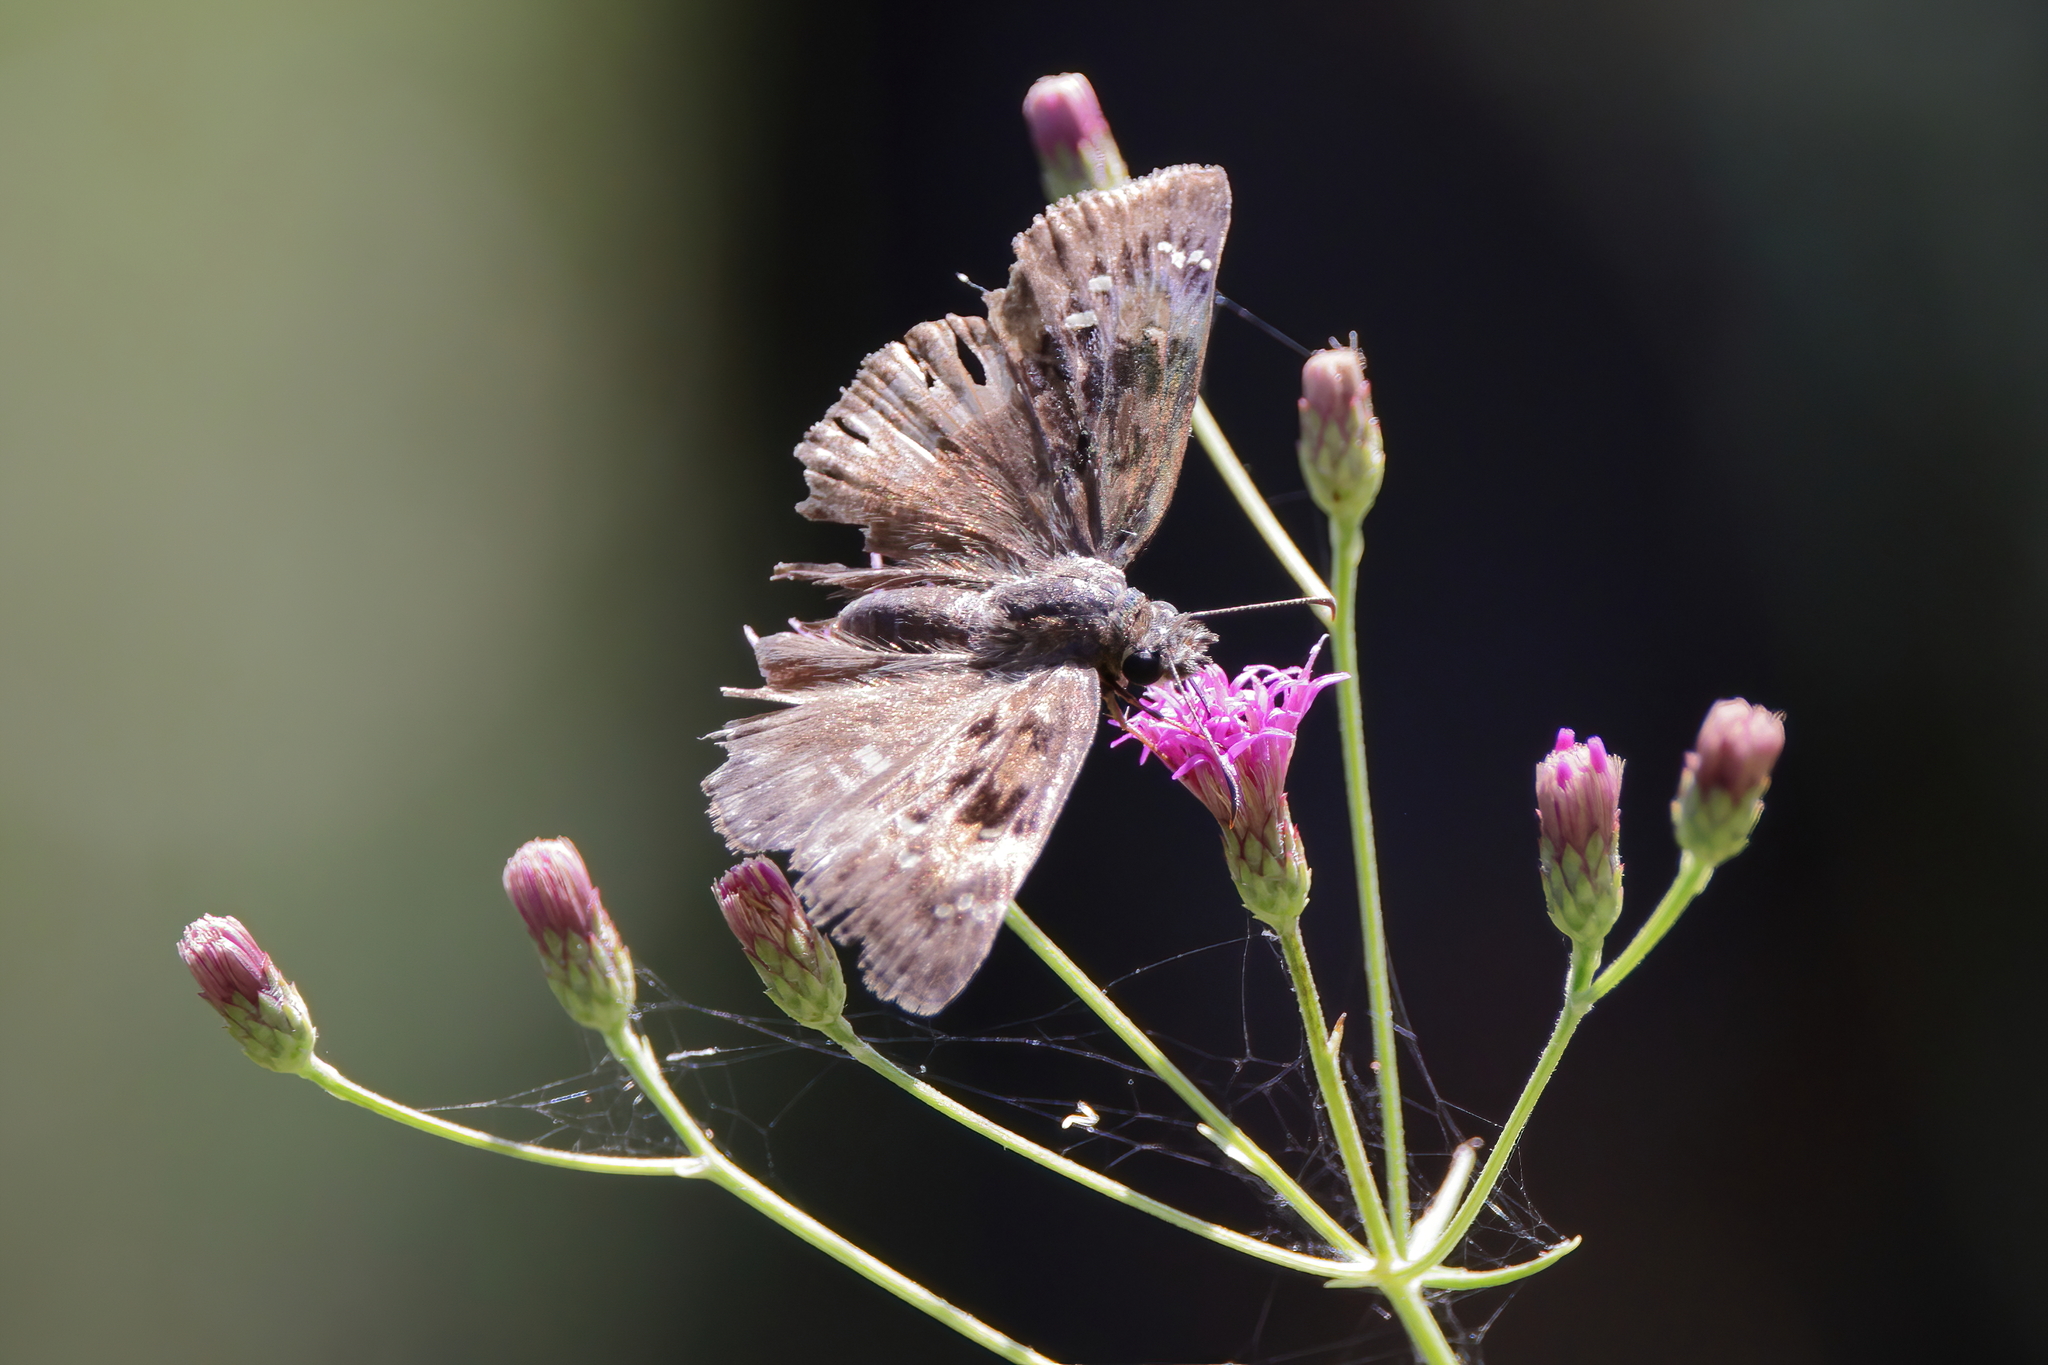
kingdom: Animalia
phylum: Arthropoda
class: Insecta
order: Lepidoptera
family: Hesperiidae
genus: Erynnis
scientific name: Erynnis horatius
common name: Horace's duskywing
